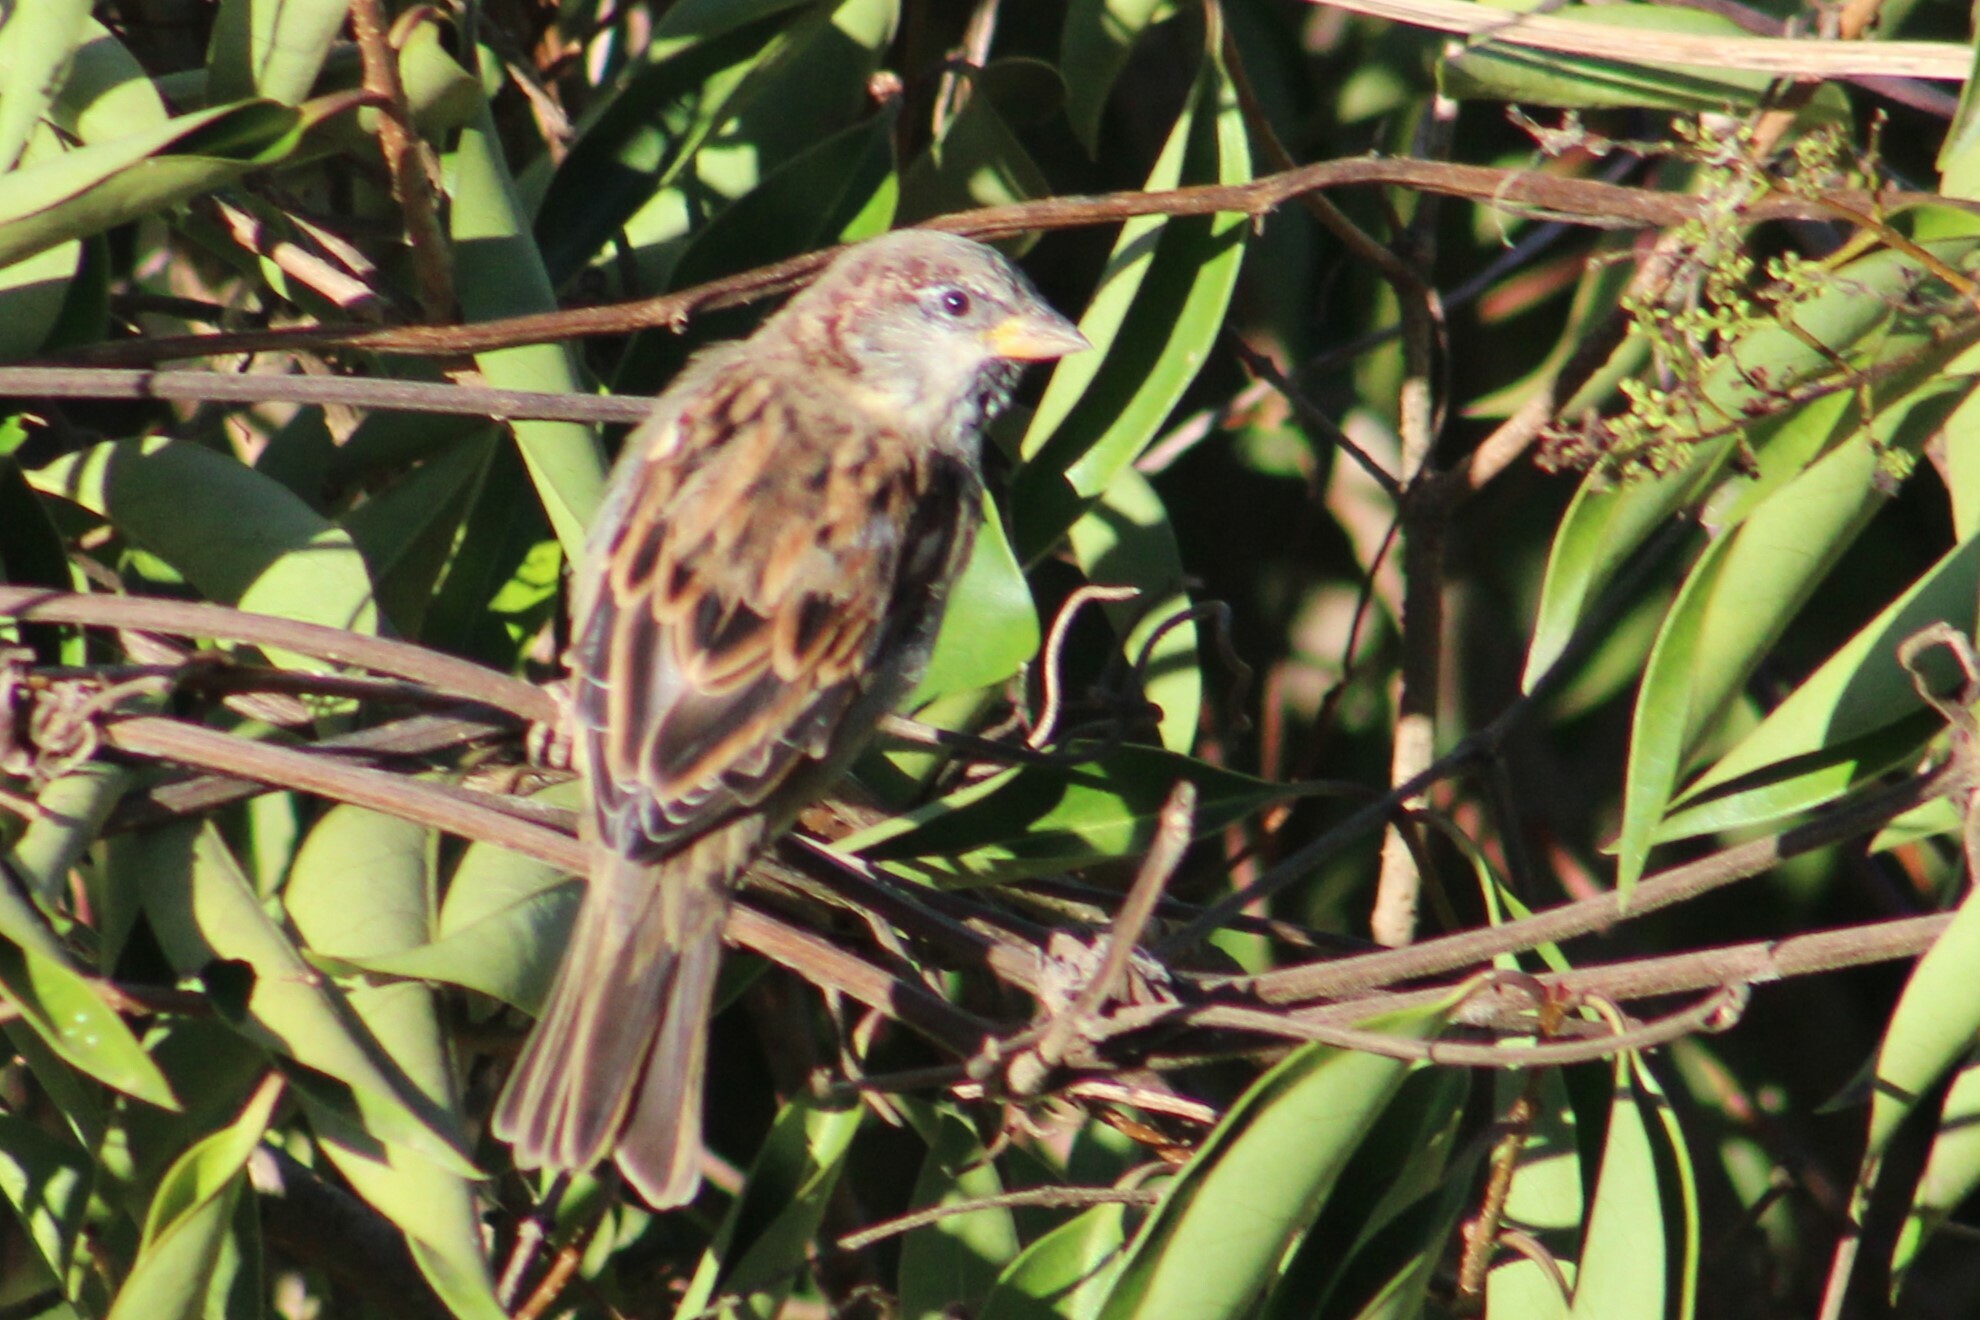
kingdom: Animalia
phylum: Chordata
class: Aves
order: Passeriformes
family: Passeridae
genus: Passer
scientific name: Passer domesticus
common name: House sparrow
